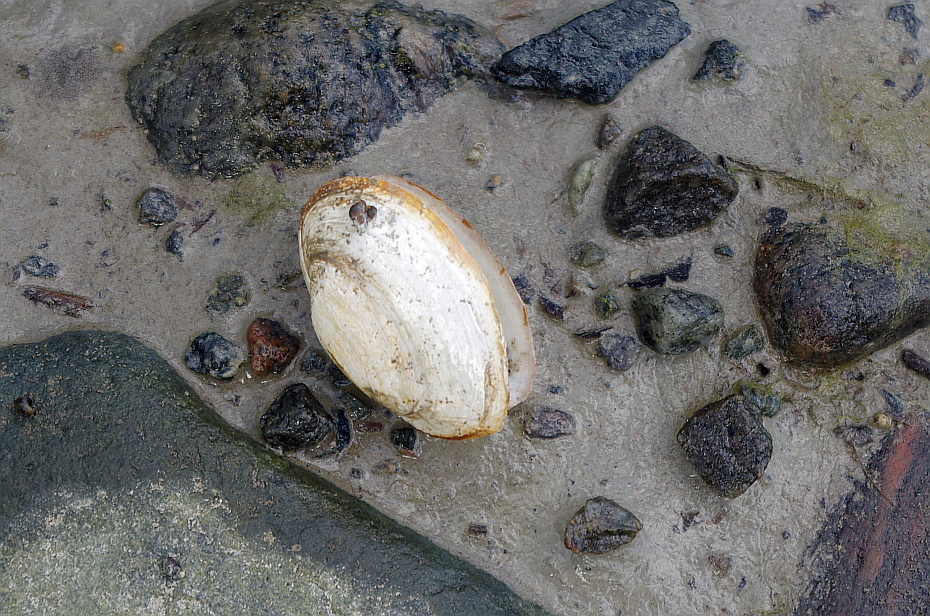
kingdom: Animalia
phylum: Mollusca
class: Bivalvia
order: Myida
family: Myidae
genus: Mya
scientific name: Mya arenaria
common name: Soft-shelled clam
